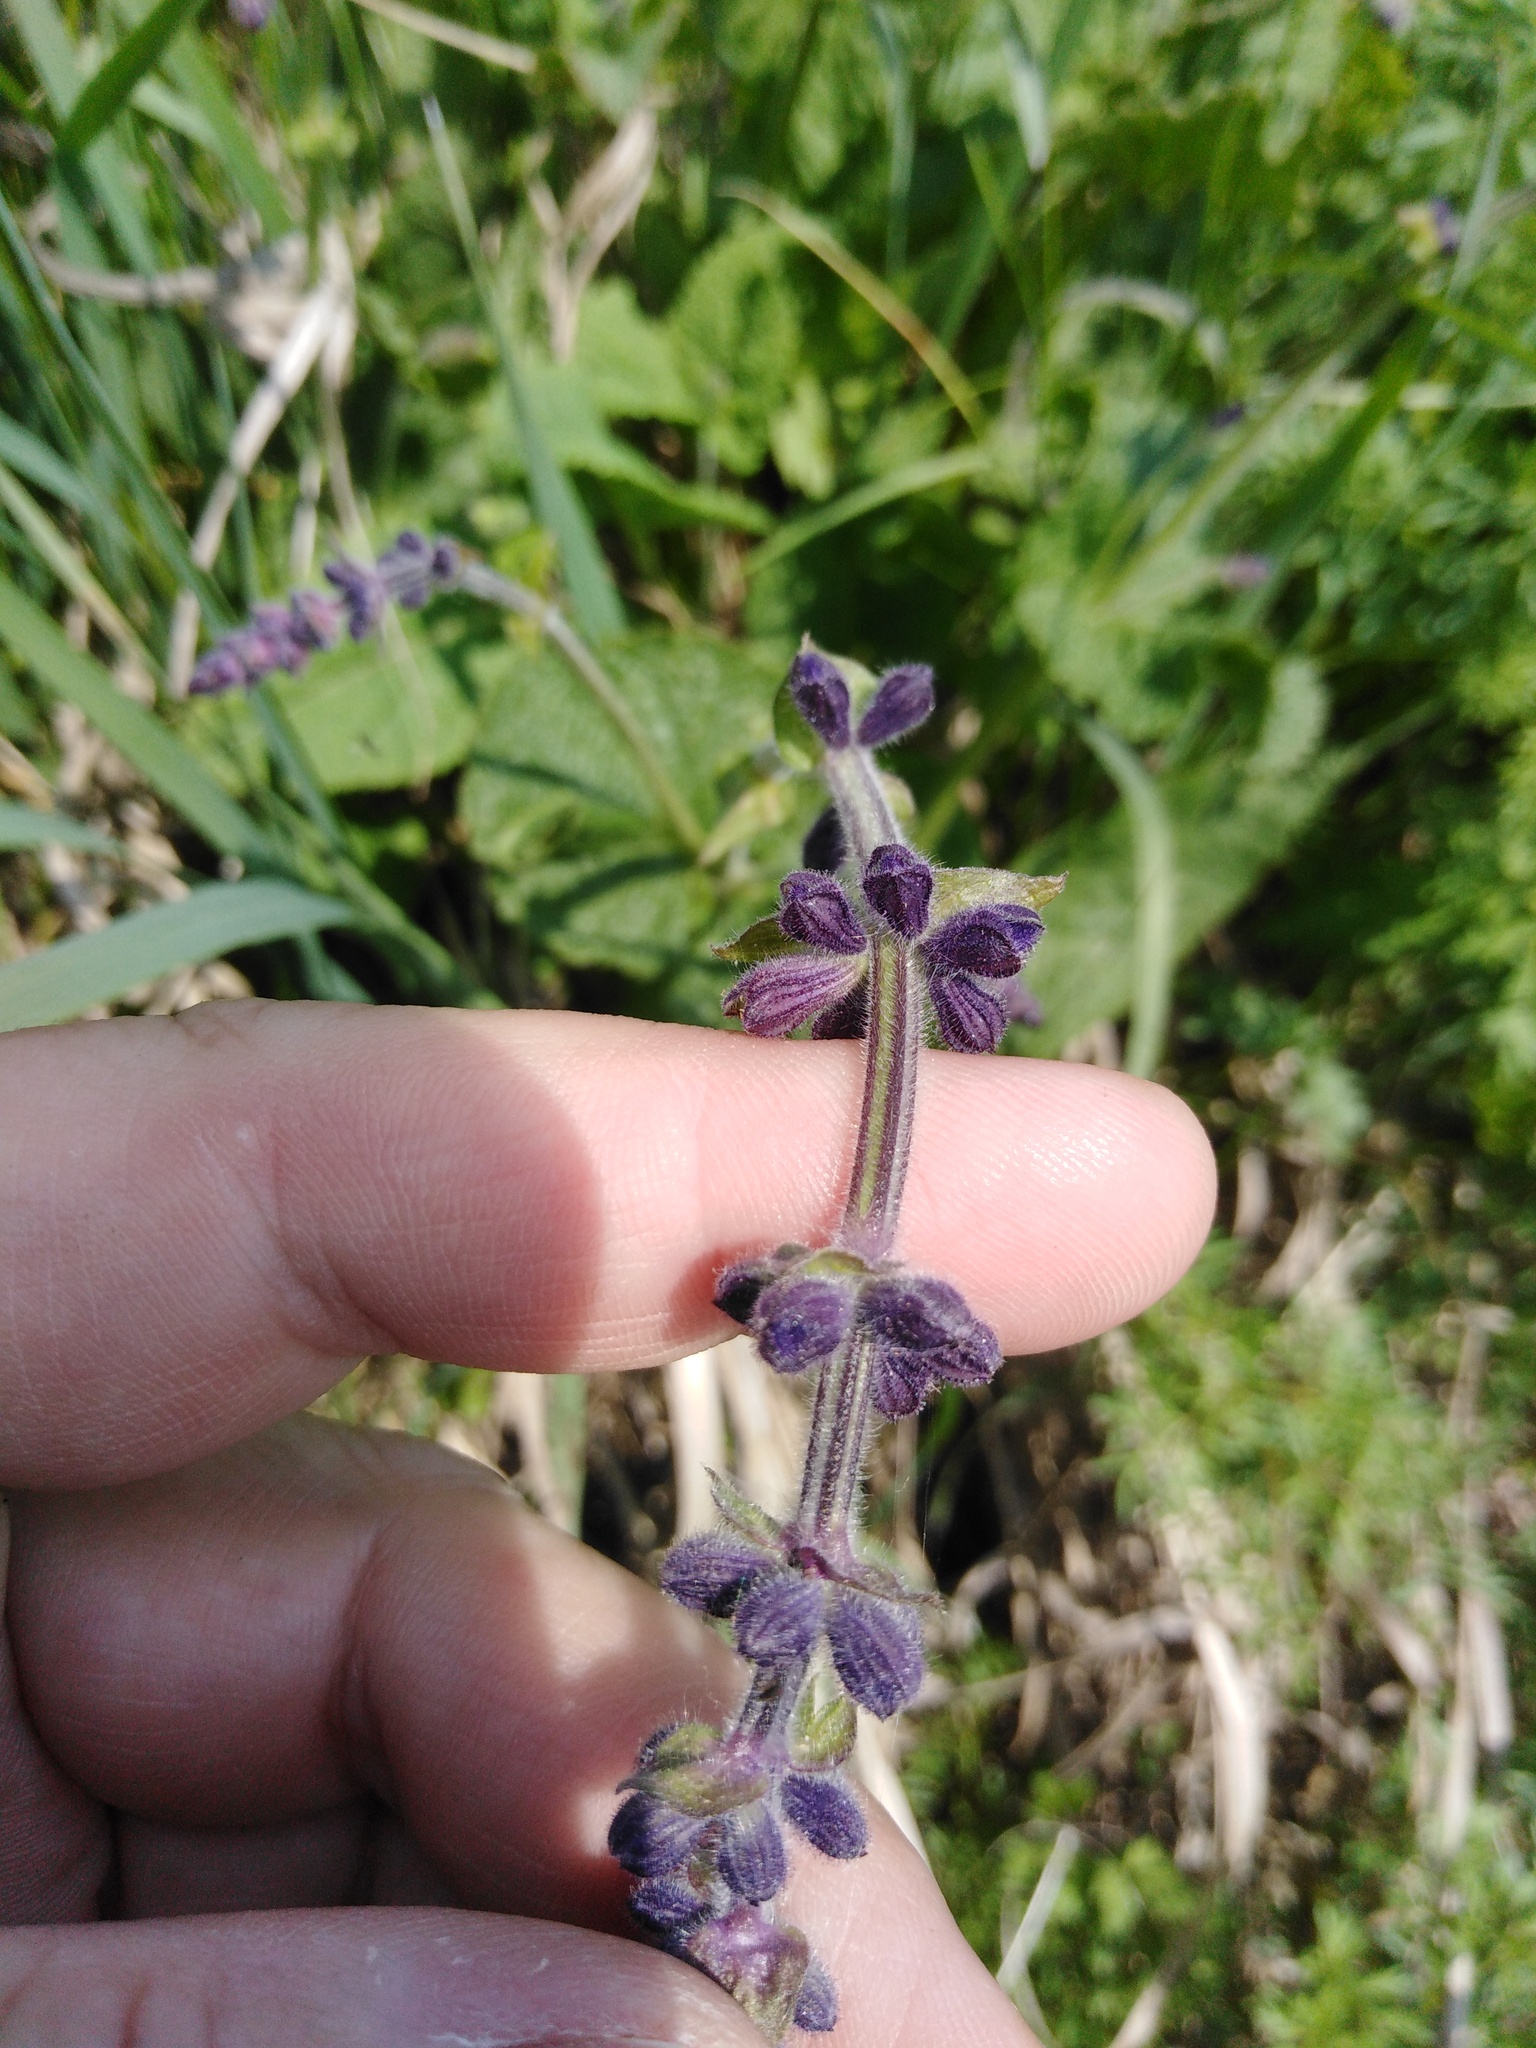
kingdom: Plantae
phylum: Tracheophyta
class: Magnoliopsida
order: Lamiales
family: Lamiaceae
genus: Salvia
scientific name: Salvia dumetorum
